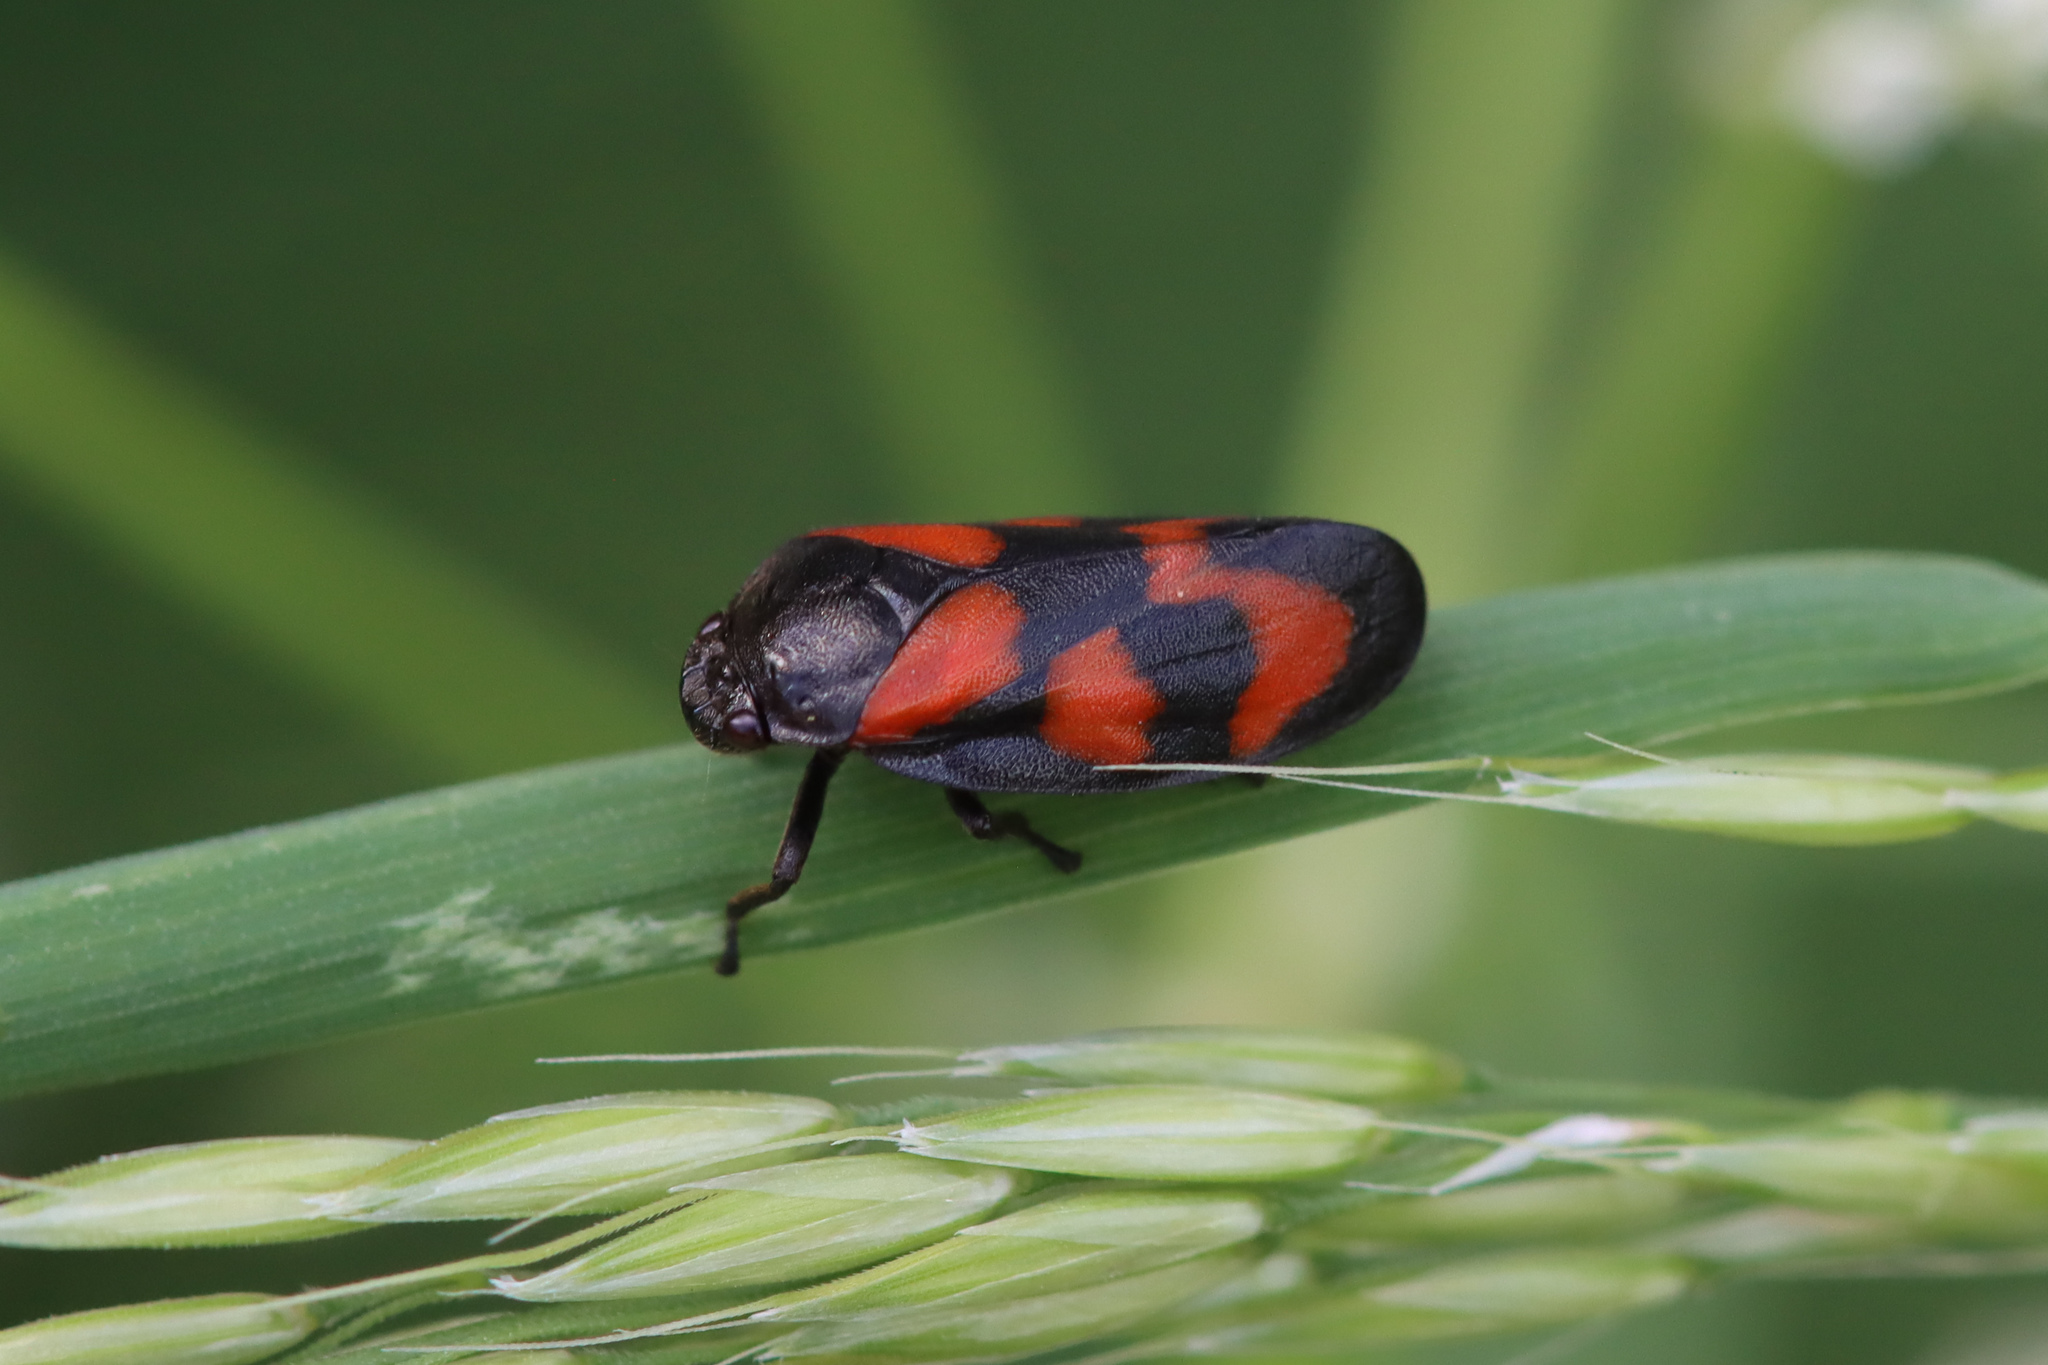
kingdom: Animalia
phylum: Arthropoda
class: Insecta
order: Hemiptera
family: Cercopidae
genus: Cercopis
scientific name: Cercopis vulnerata
